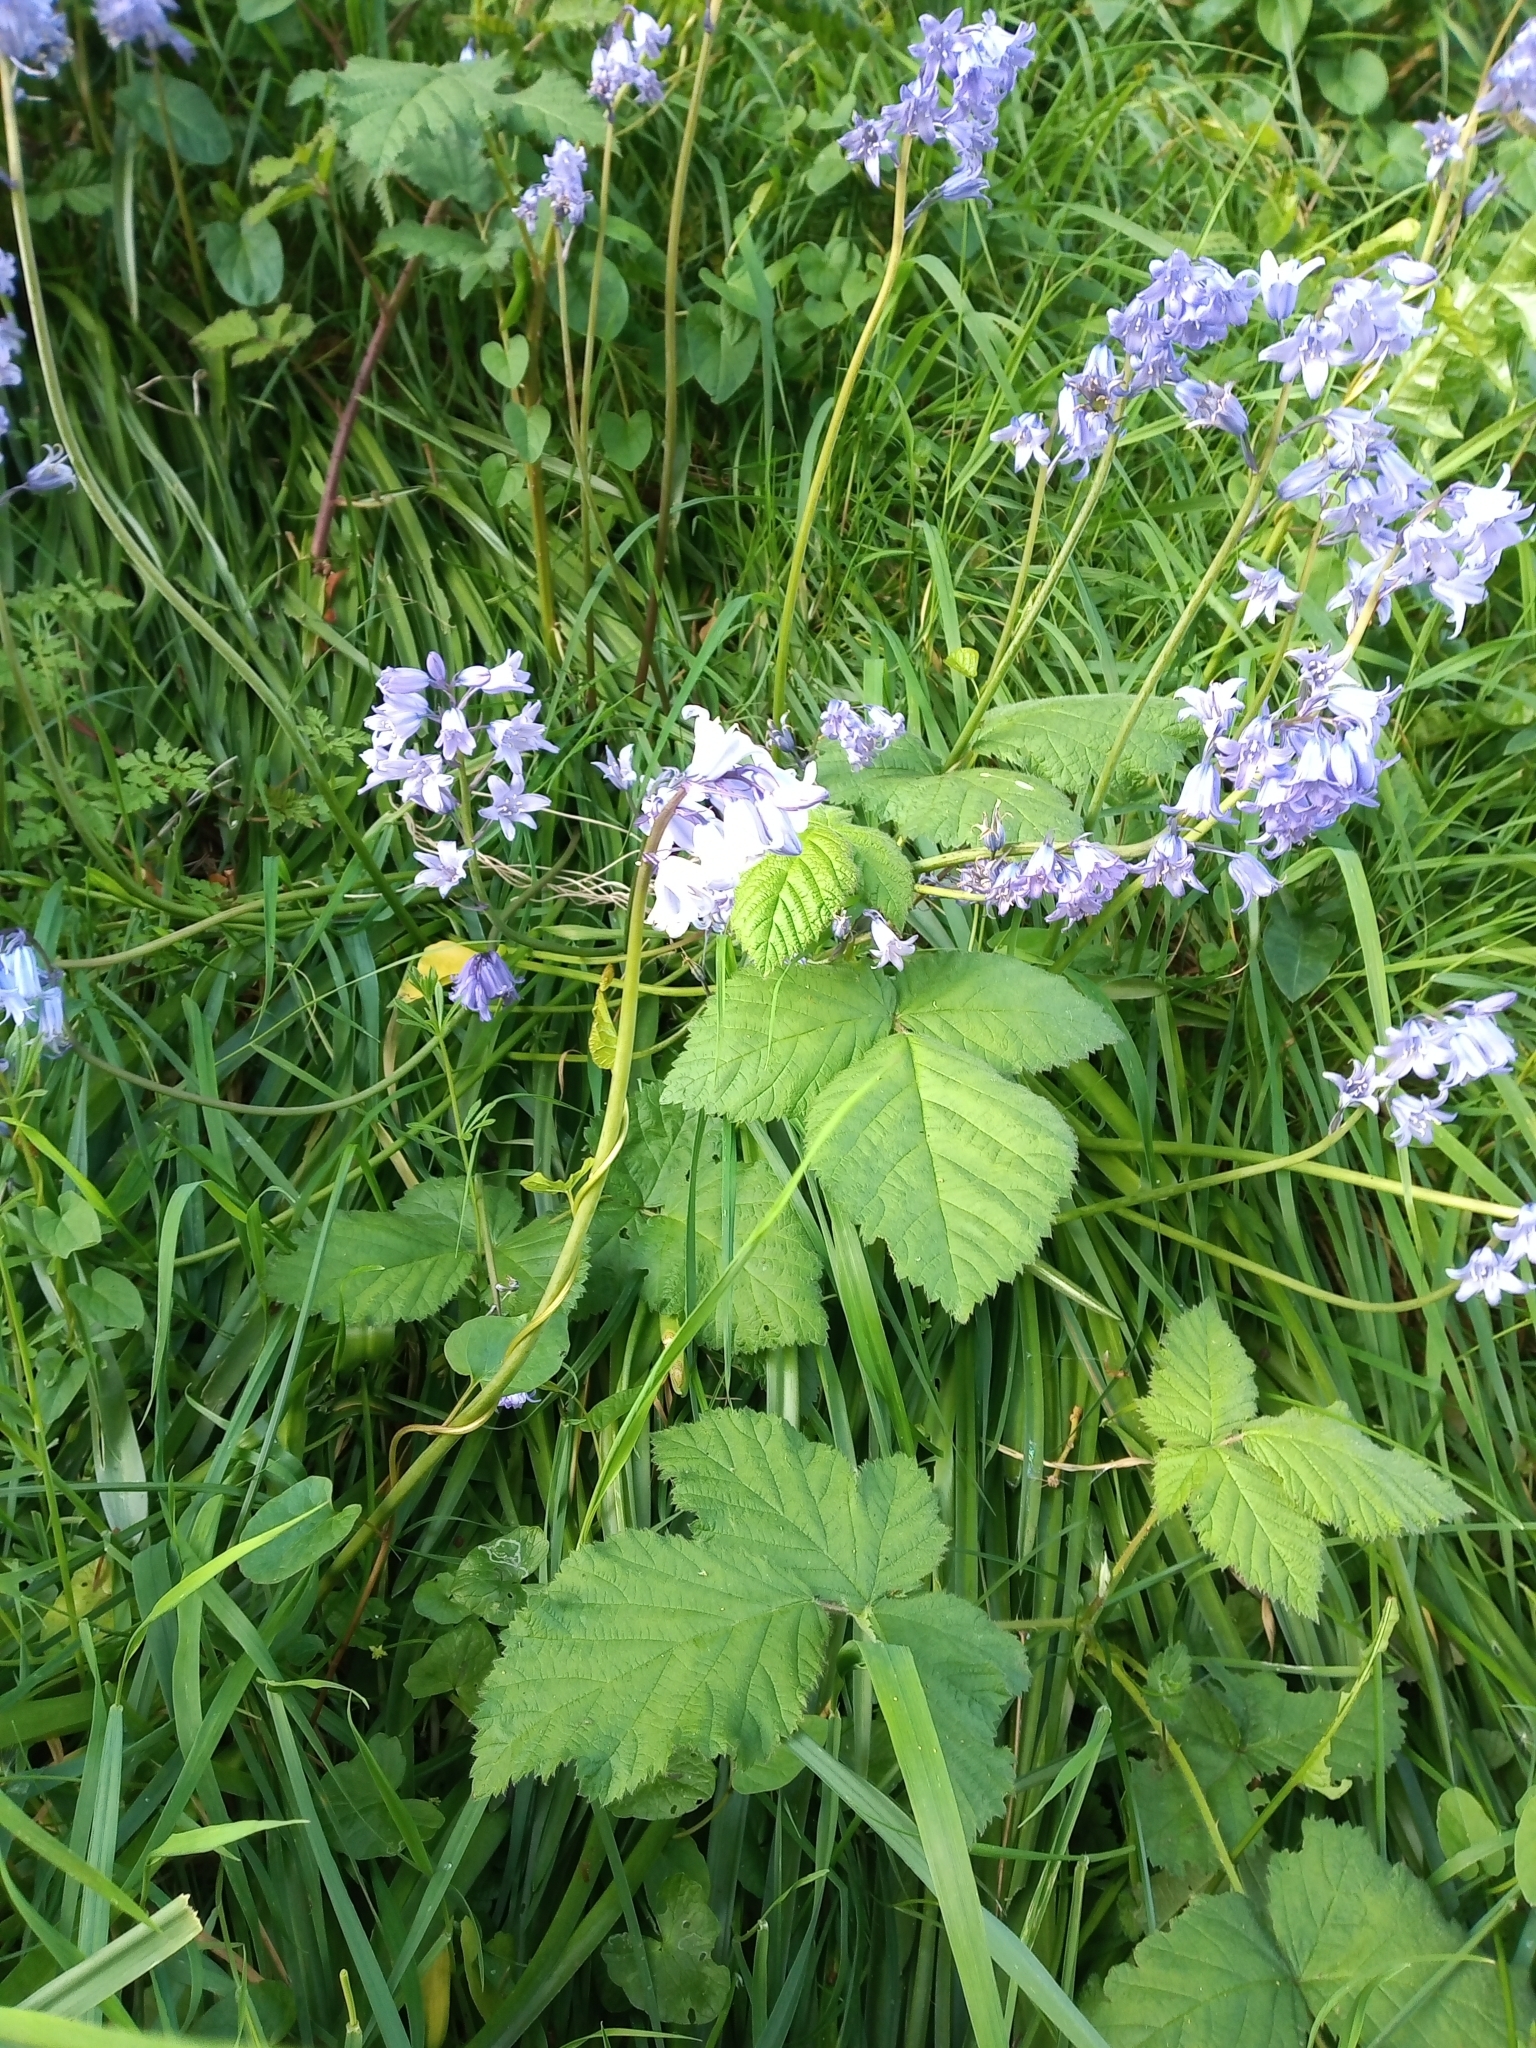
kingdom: Plantae
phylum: Tracheophyta
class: Liliopsida
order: Asparagales
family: Asparagaceae
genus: Hyacinthoides
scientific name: Hyacinthoides massartiana
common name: Hyacinthoides
